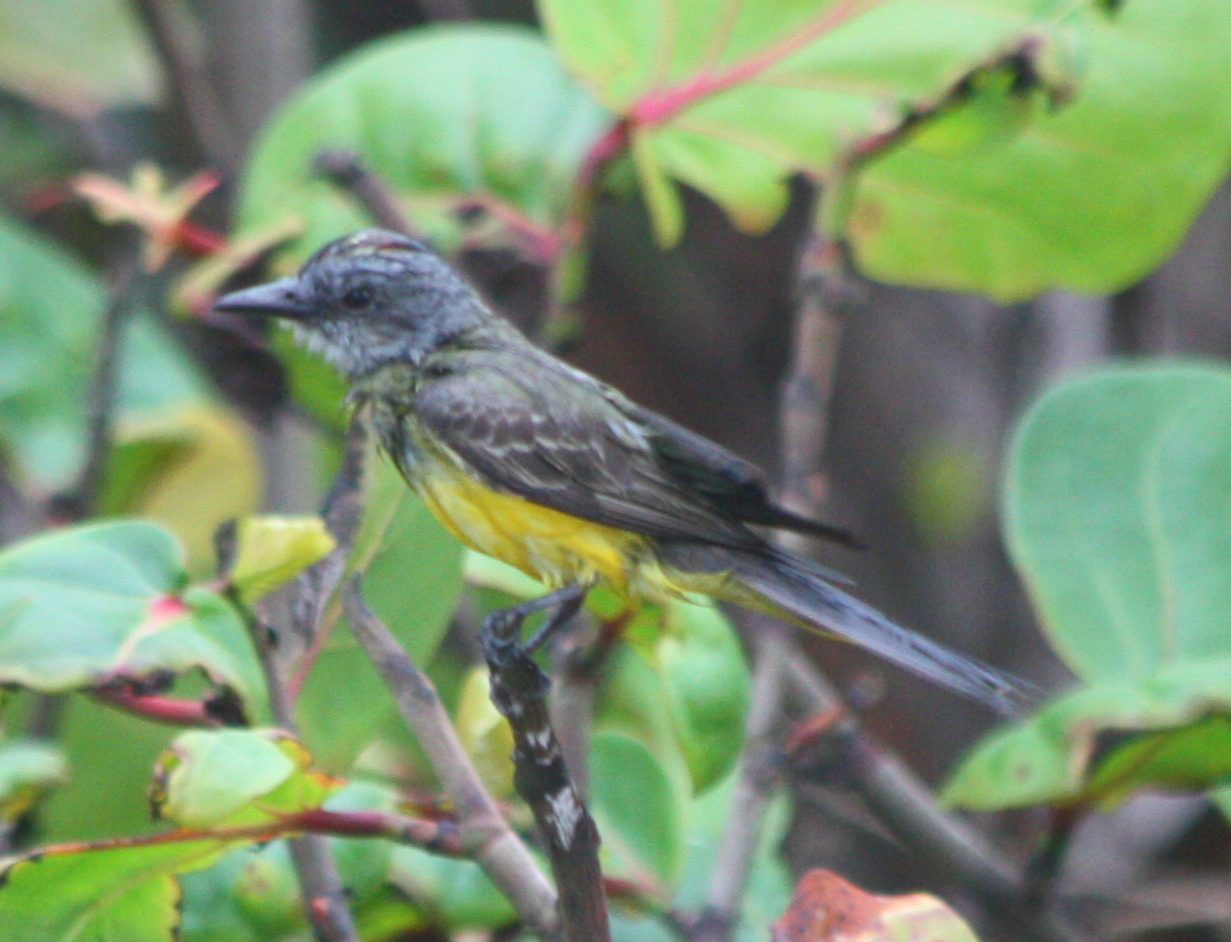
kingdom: Animalia
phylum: Chordata
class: Aves
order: Passeriformes
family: Tyrannidae
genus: Tyrannus
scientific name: Tyrannus melancholicus
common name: Tropical kingbird
